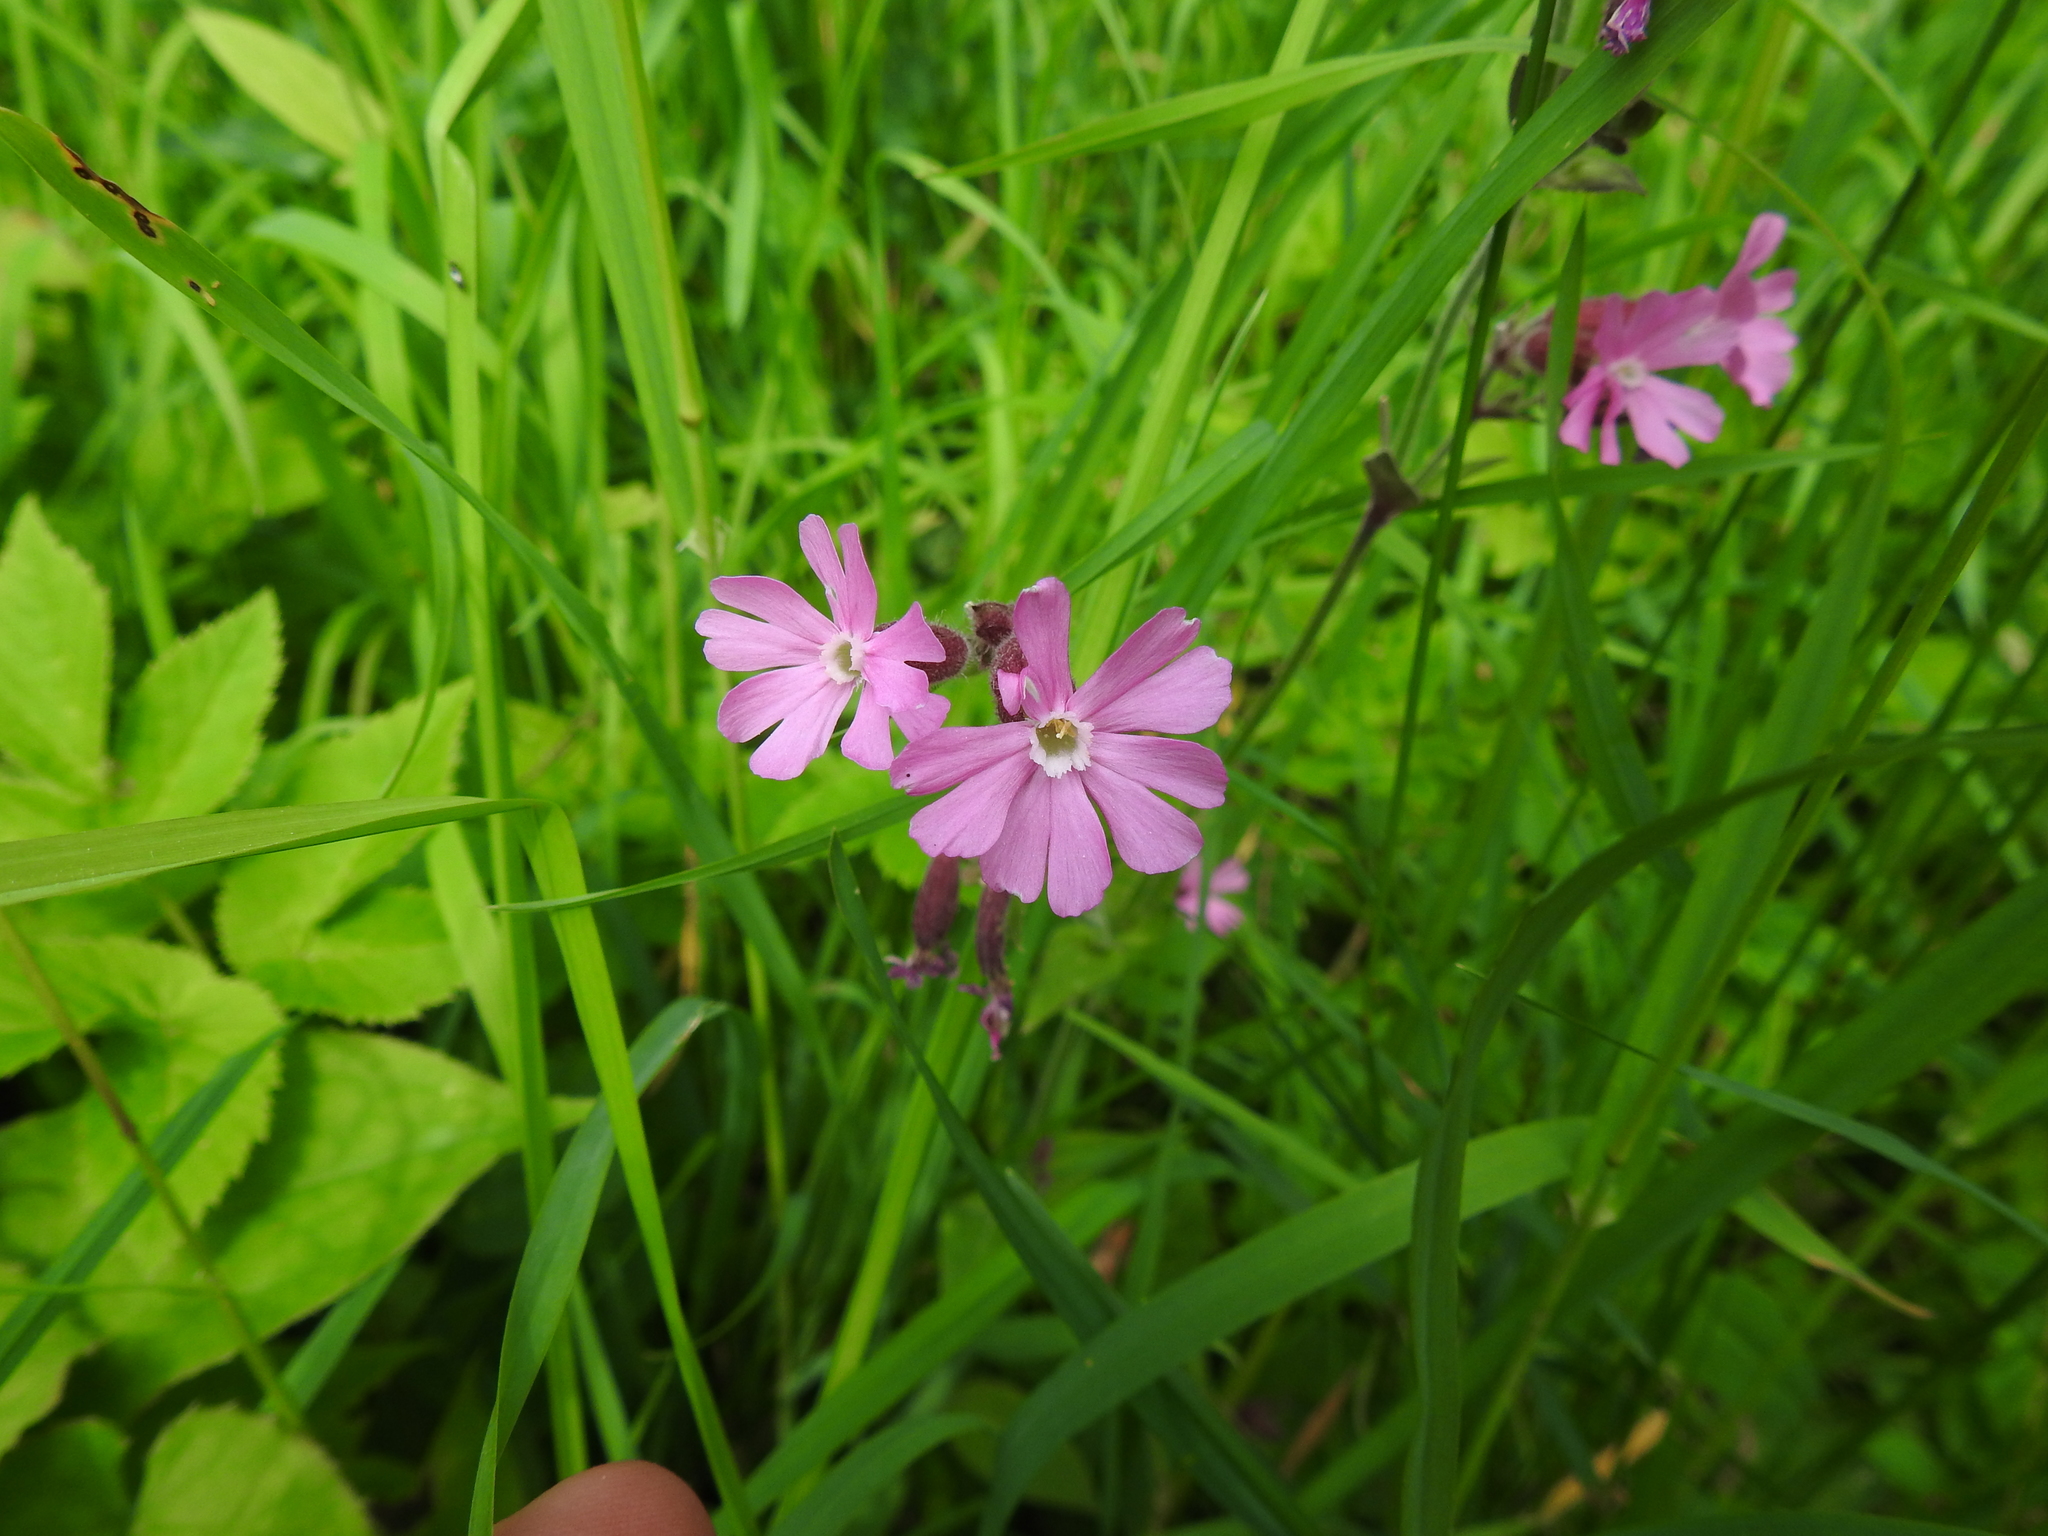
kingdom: Plantae
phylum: Tracheophyta
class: Magnoliopsida
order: Caryophyllales
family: Caryophyllaceae
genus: Silene
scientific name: Silene dioica
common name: Red campion
